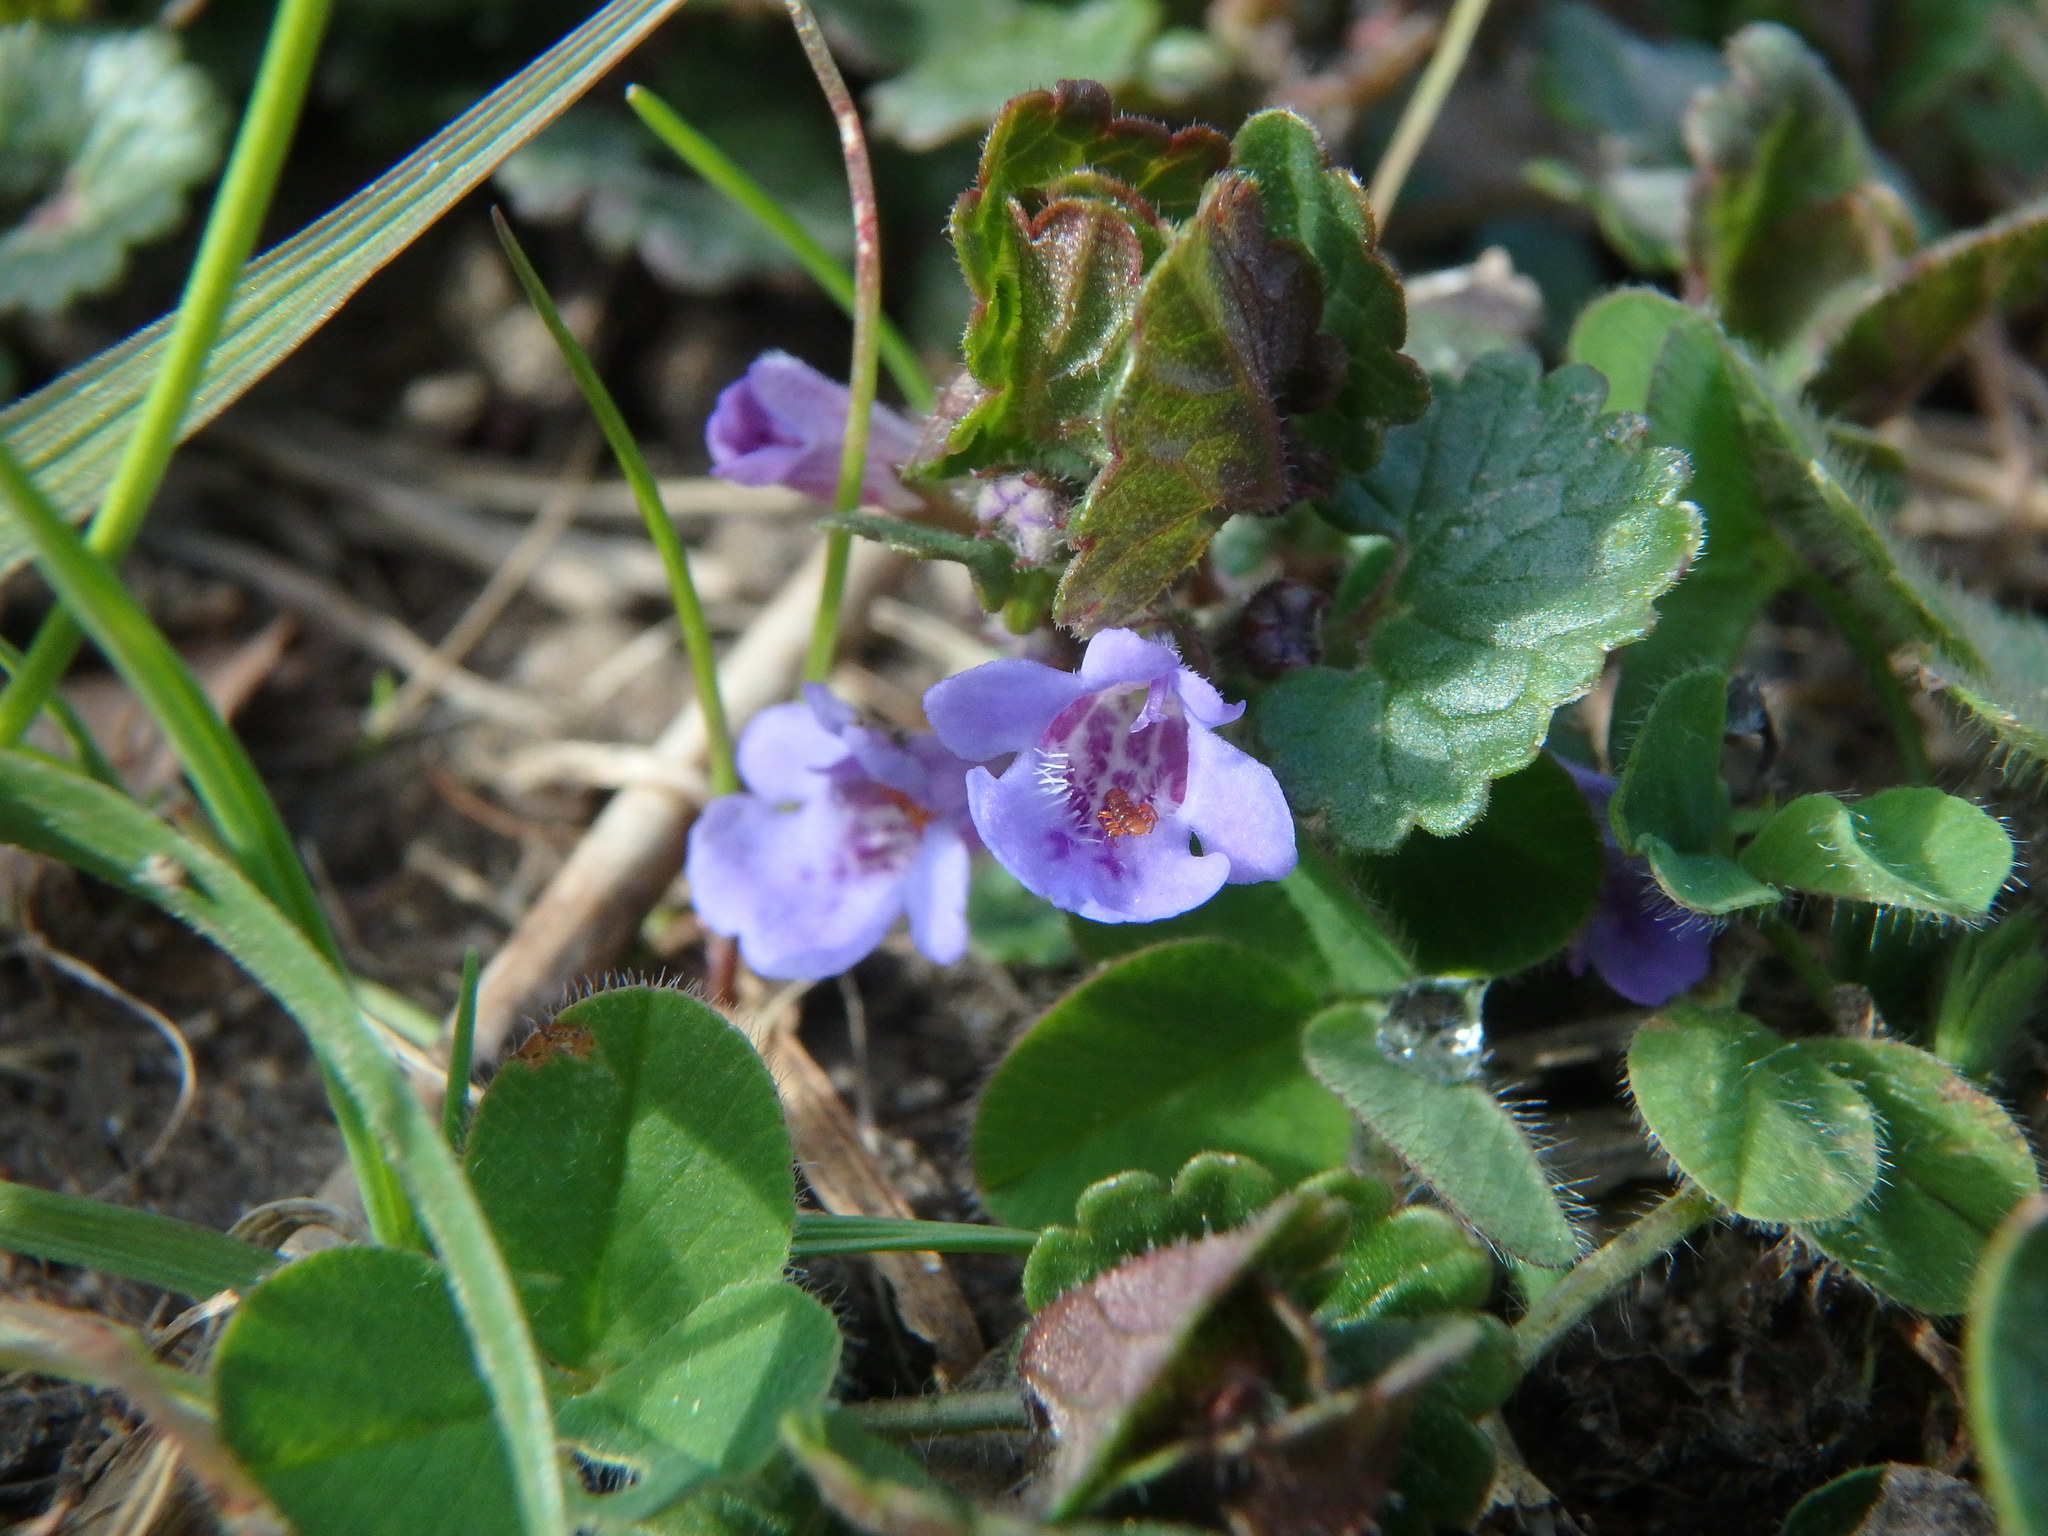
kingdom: Plantae
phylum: Tracheophyta
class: Magnoliopsida
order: Lamiales
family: Lamiaceae
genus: Glechoma
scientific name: Glechoma hederacea
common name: Ground ivy
